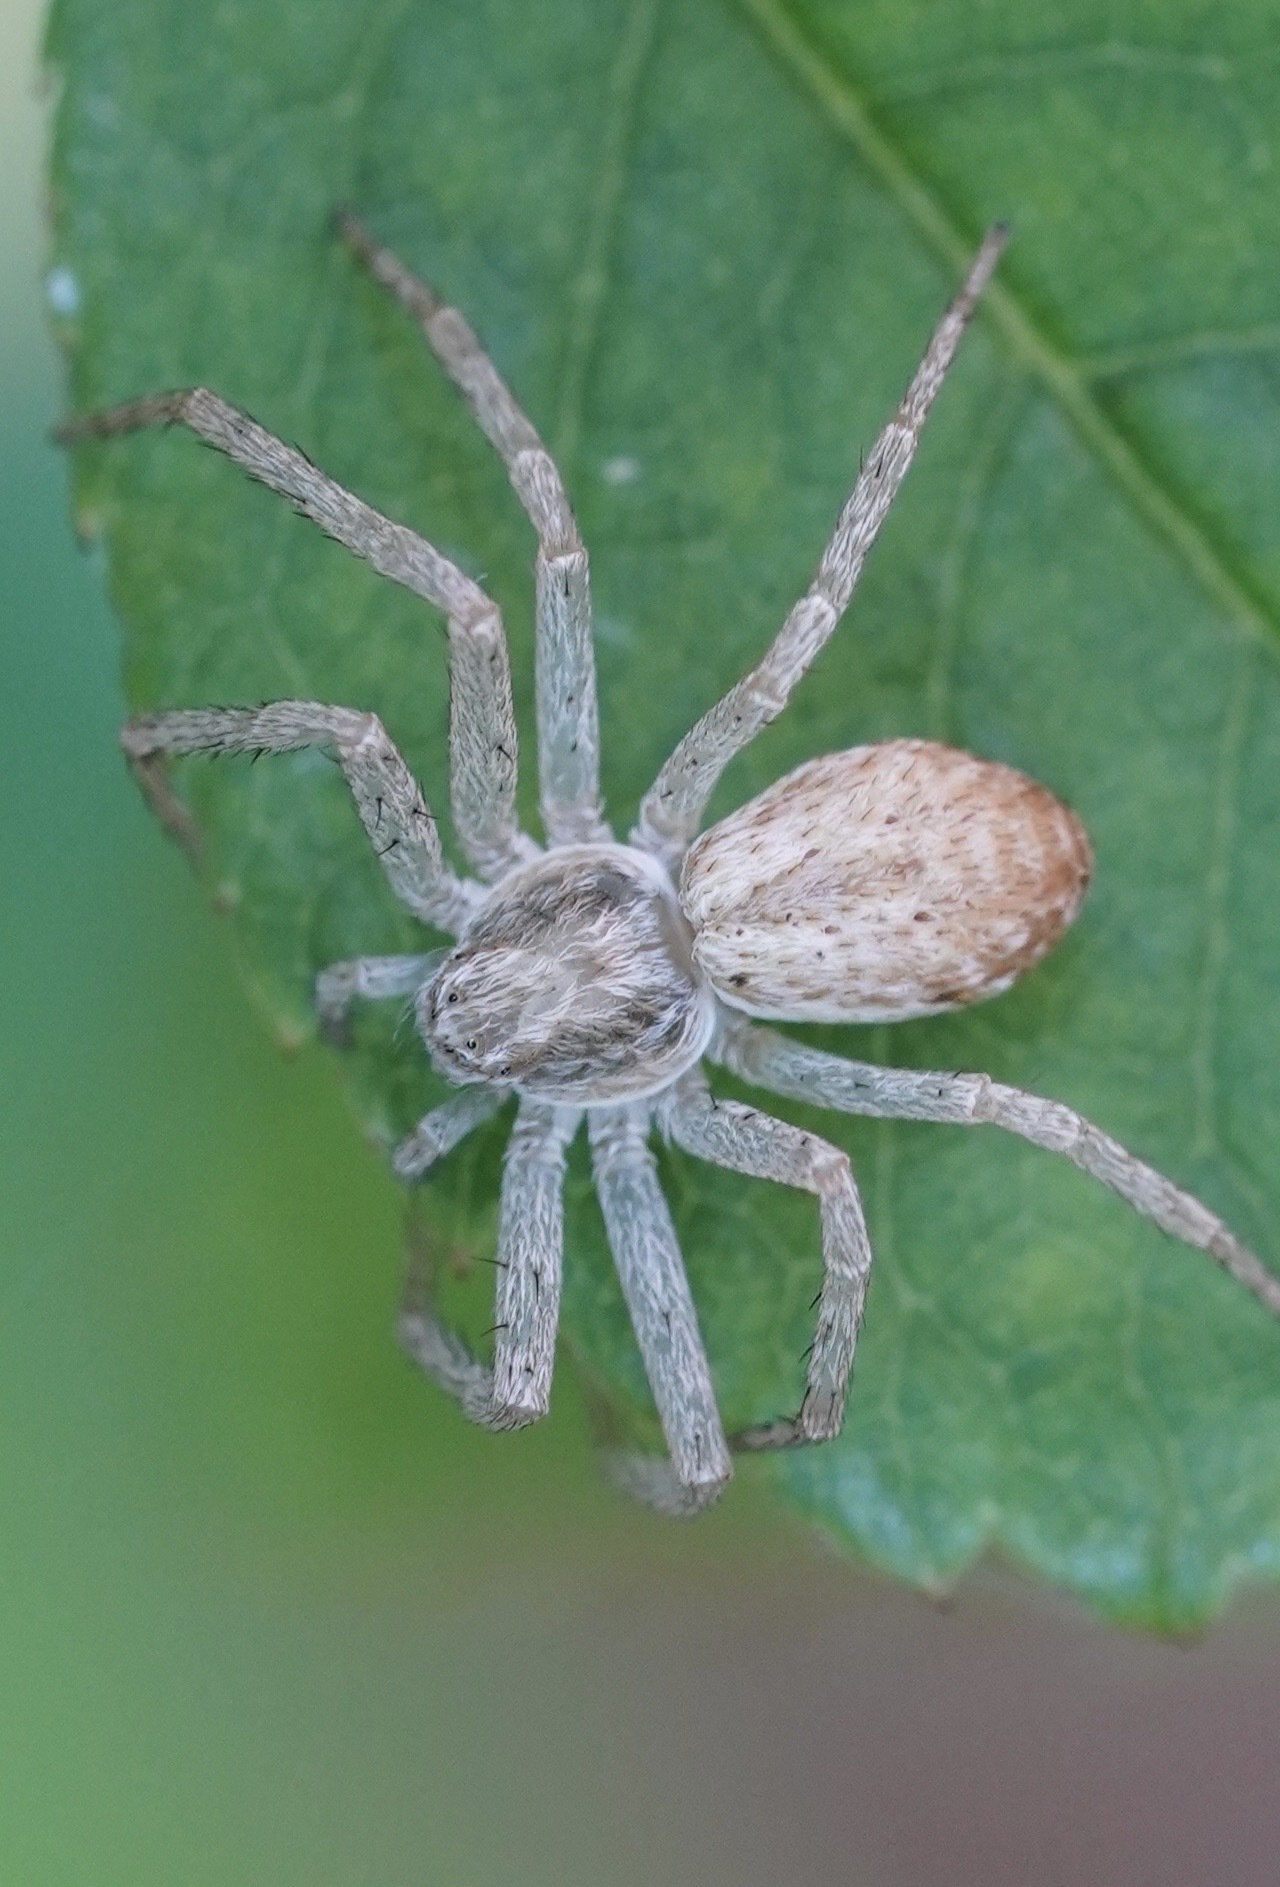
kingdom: Animalia
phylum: Arthropoda
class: Arachnida
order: Araneae
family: Philodromidae
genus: Philodromus
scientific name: Philodromus dispar
